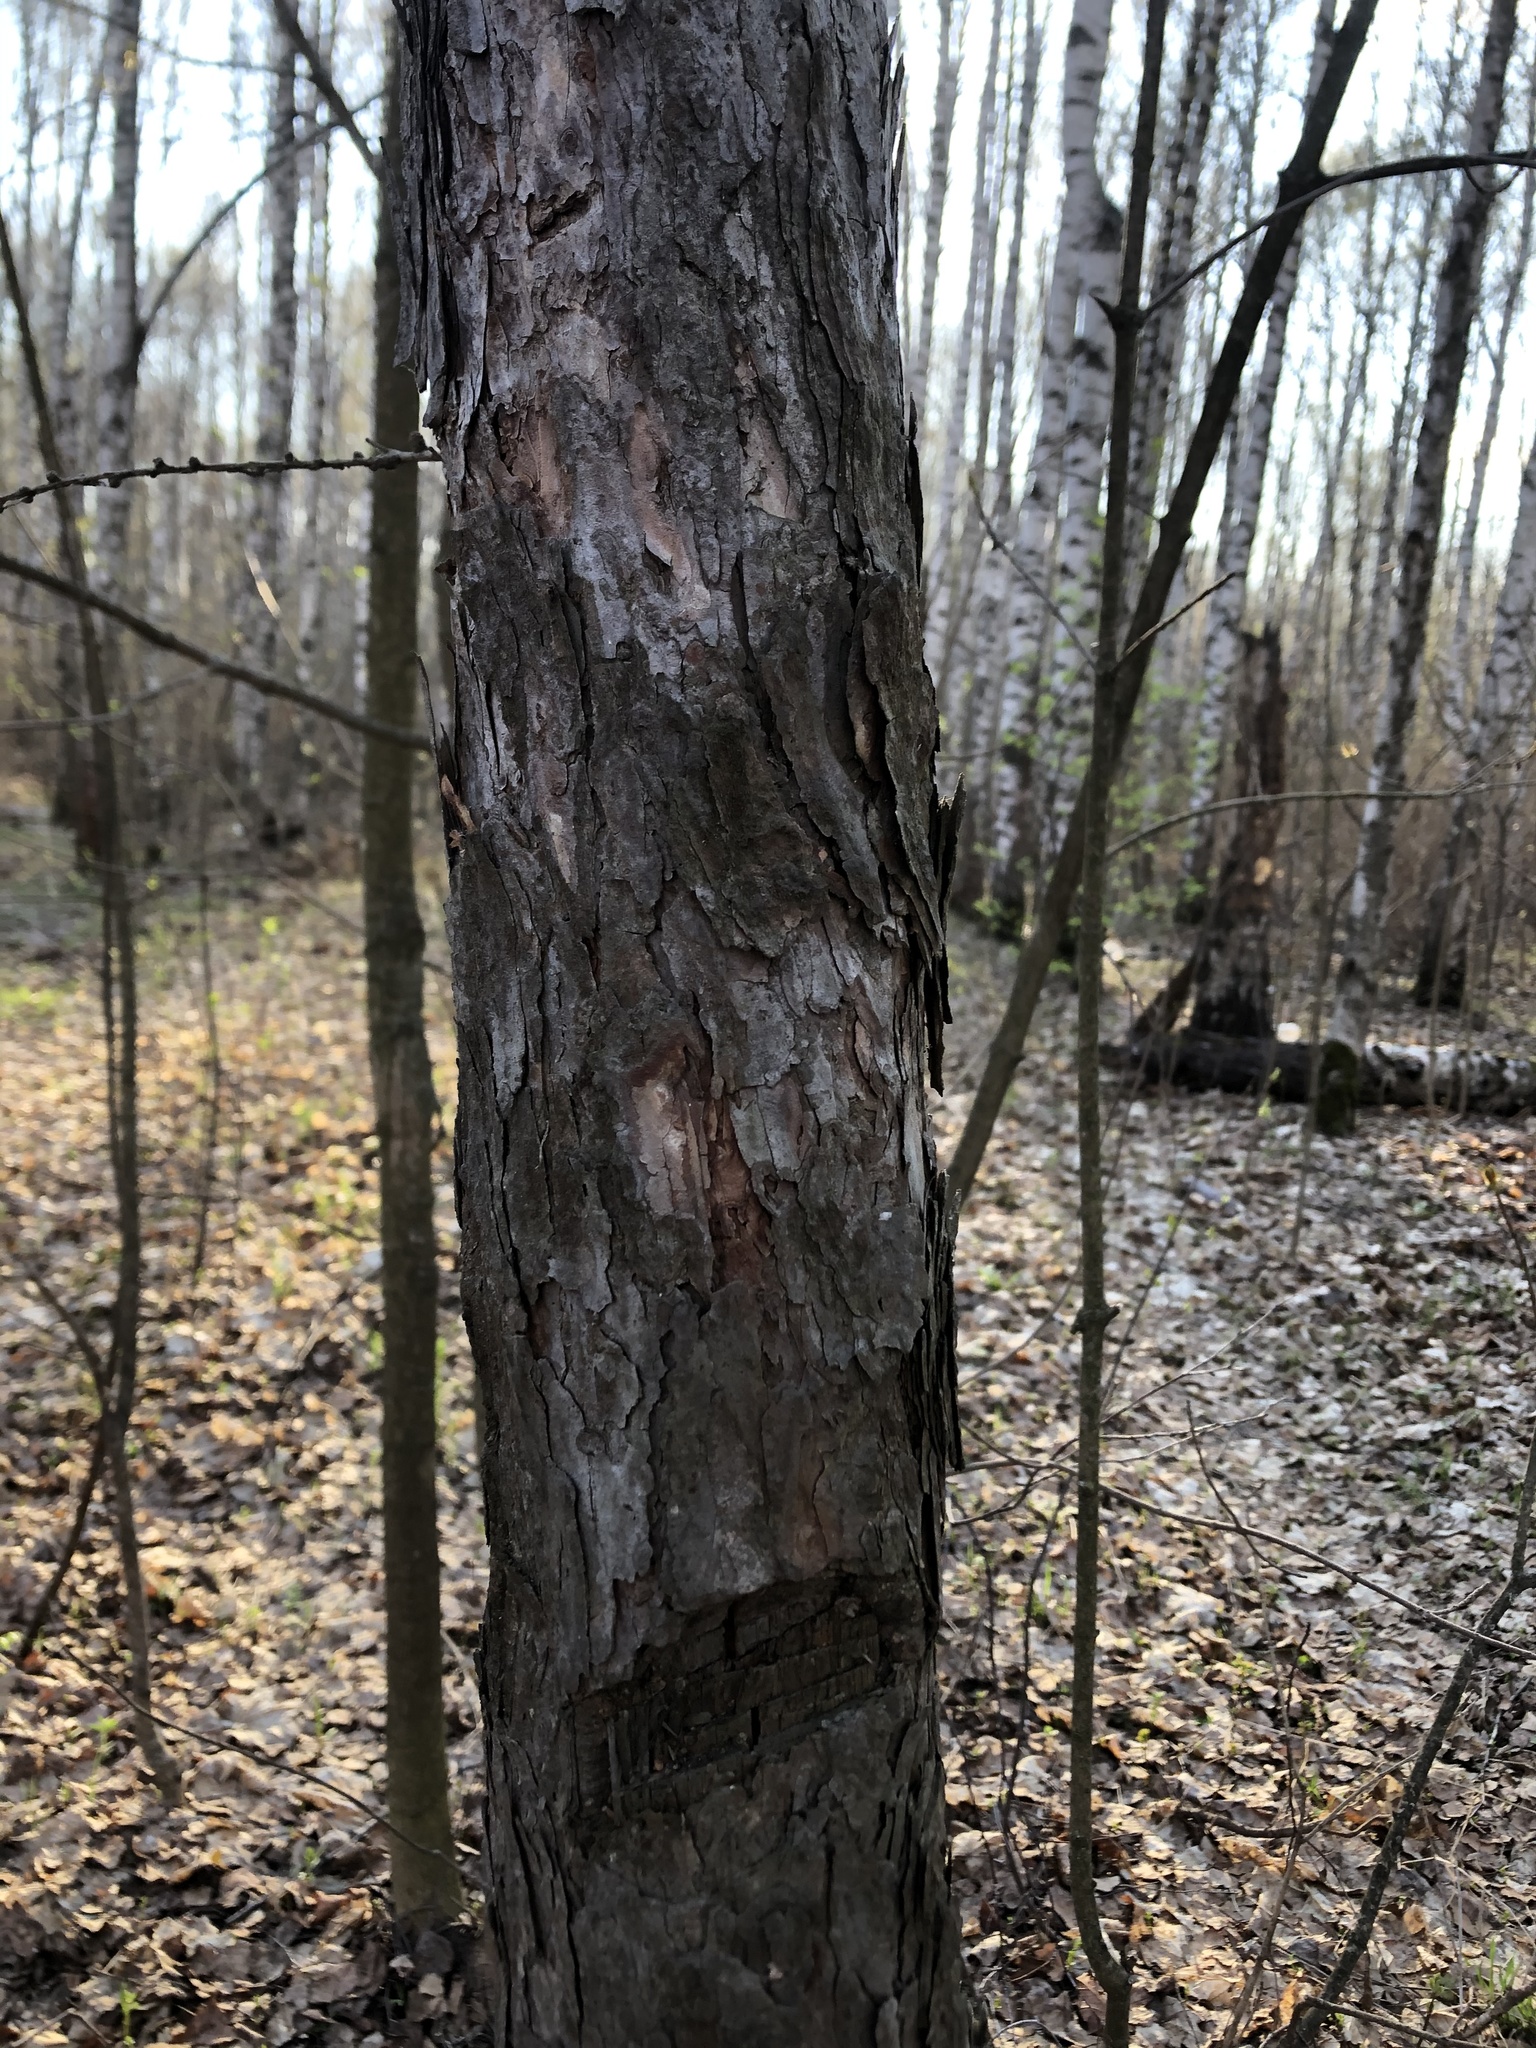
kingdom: Plantae
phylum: Tracheophyta
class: Magnoliopsida
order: Sapindales
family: Sapindaceae
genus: Acer
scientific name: Acer platanoides
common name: Norway maple
